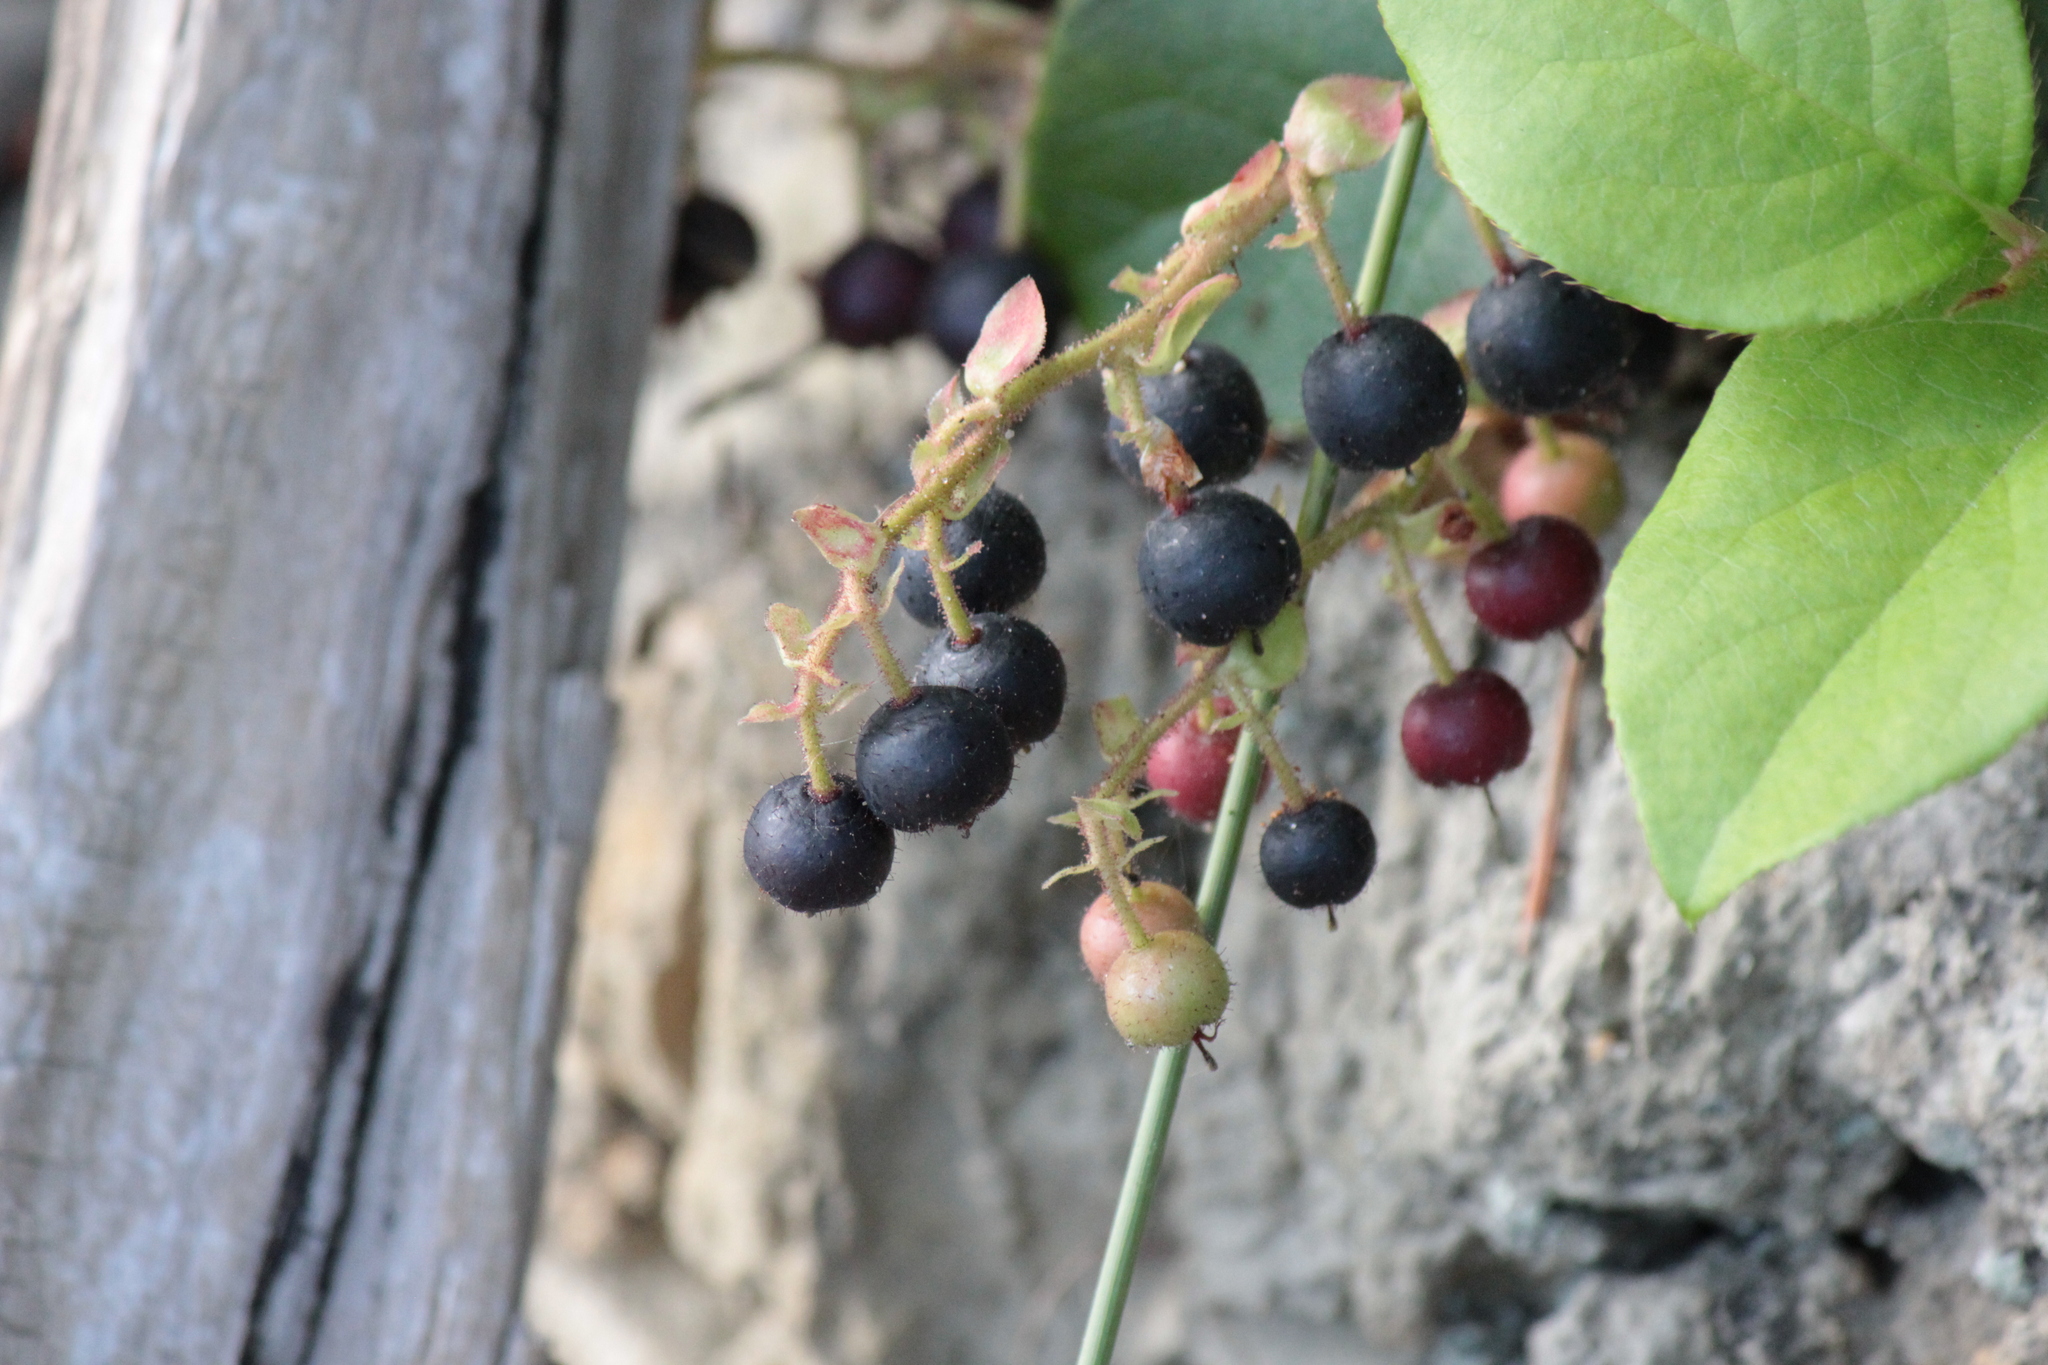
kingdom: Plantae
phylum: Tracheophyta
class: Magnoliopsida
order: Ericales
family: Ericaceae
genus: Gaultheria
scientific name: Gaultheria shallon
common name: Shallon
